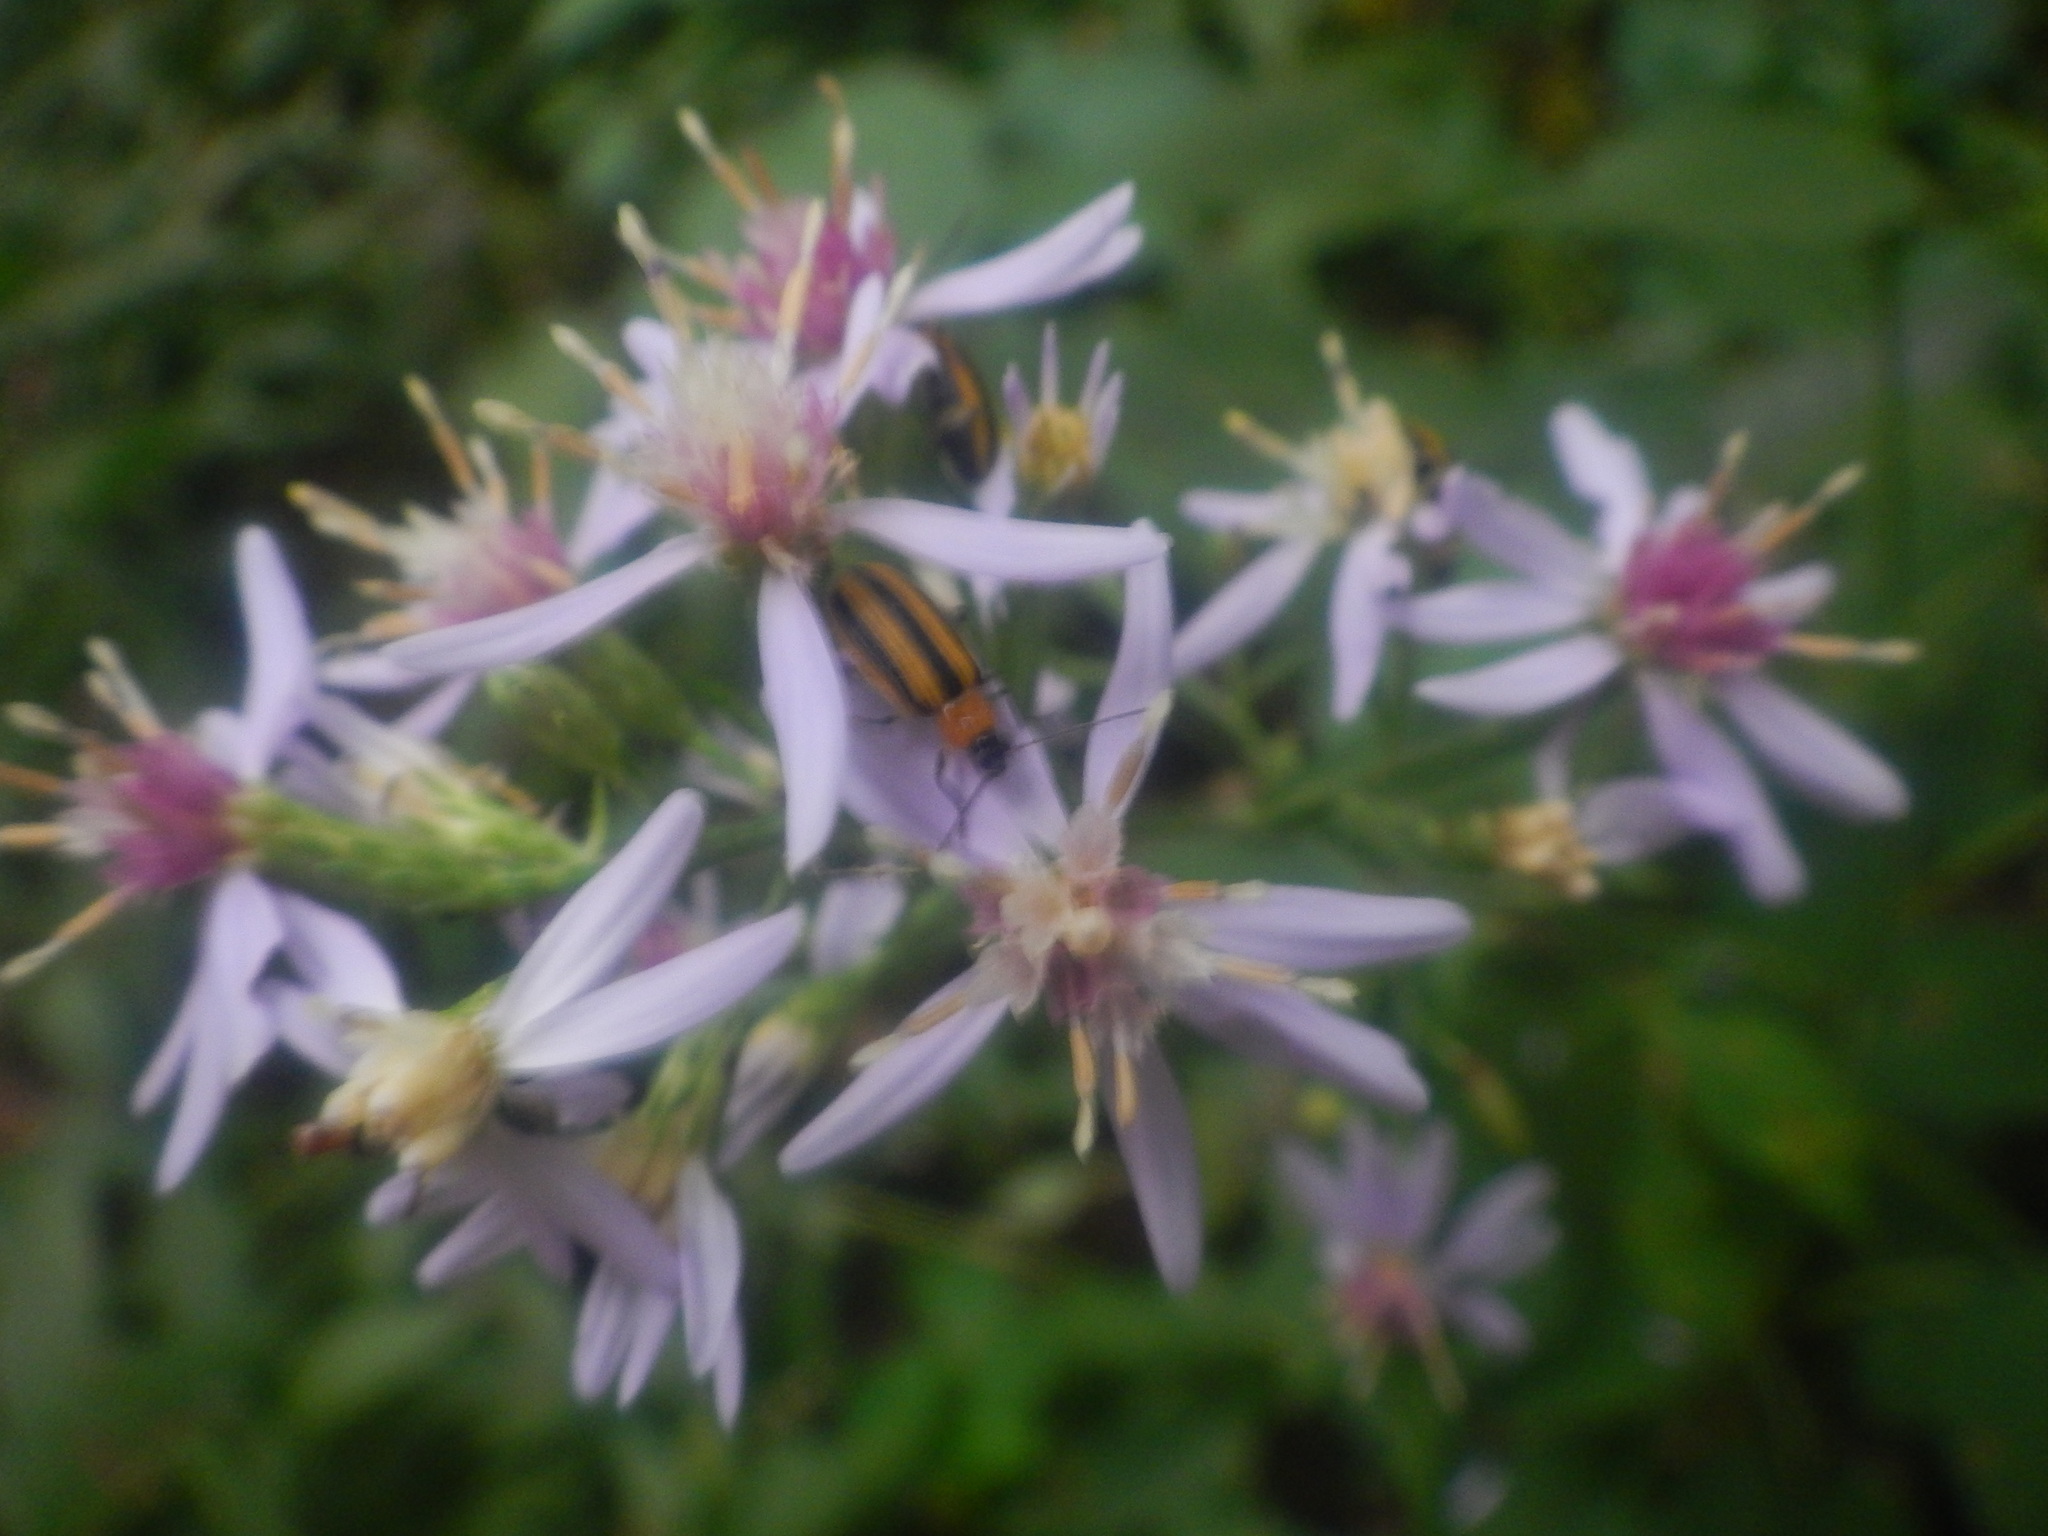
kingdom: Animalia
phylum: Arthropoda
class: Insecta
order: Coleoptera
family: Chrysomelidae
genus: Acalymma
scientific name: Acalymma vittatum
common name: Striped cucumber beetle
